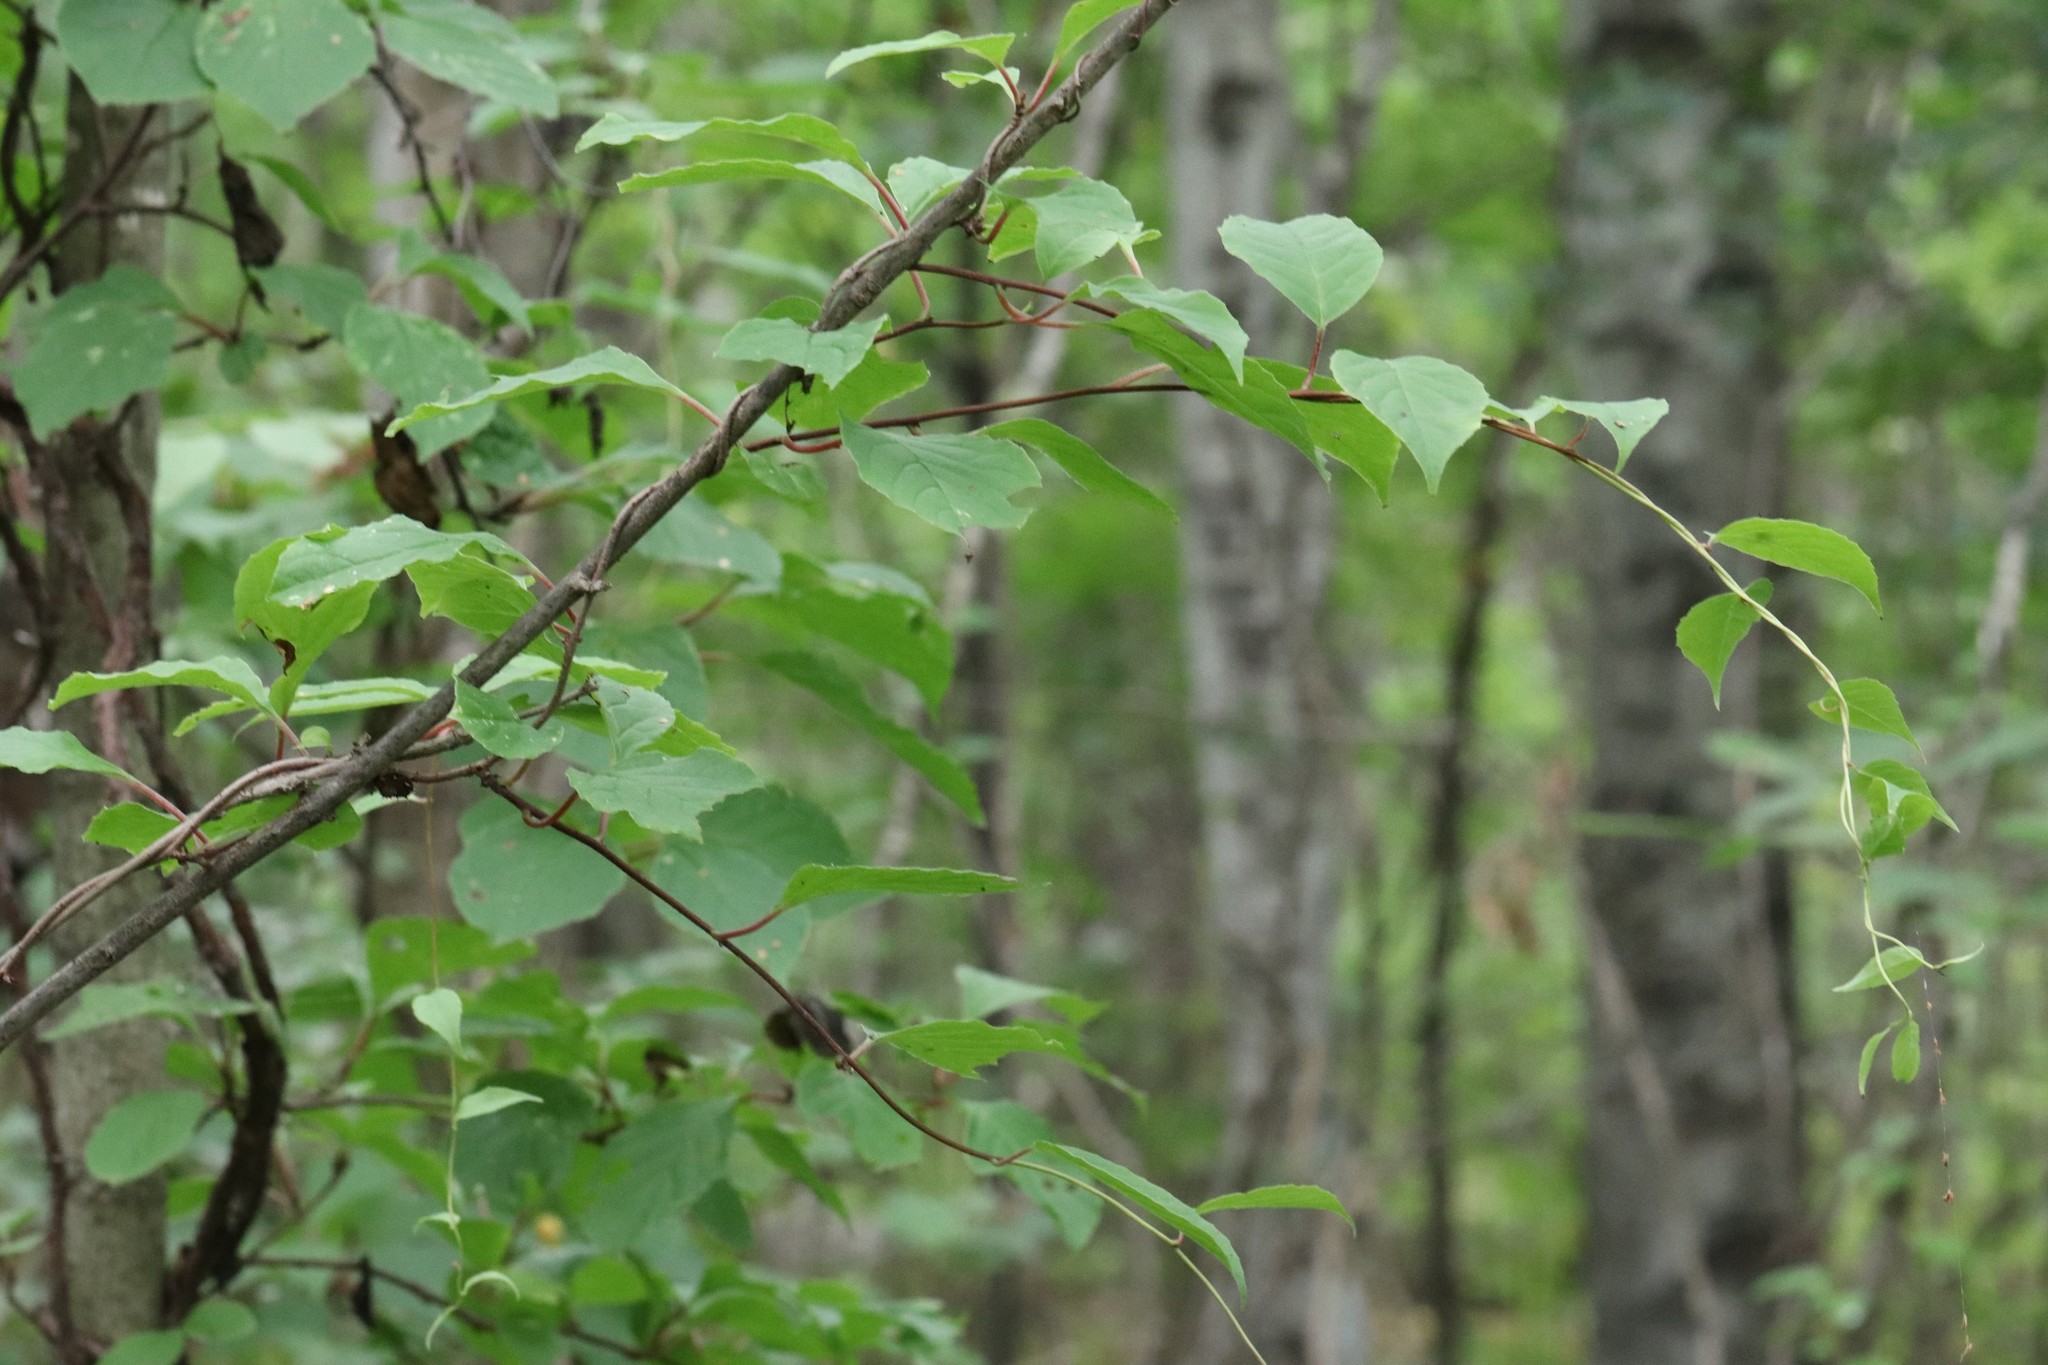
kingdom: Plantae
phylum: Tracheophyta
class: Magnoliopsida
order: Austrobaileyales
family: Schisandraceae
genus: Schisandra
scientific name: Schisandra chinensis
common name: Magnolia-vine
